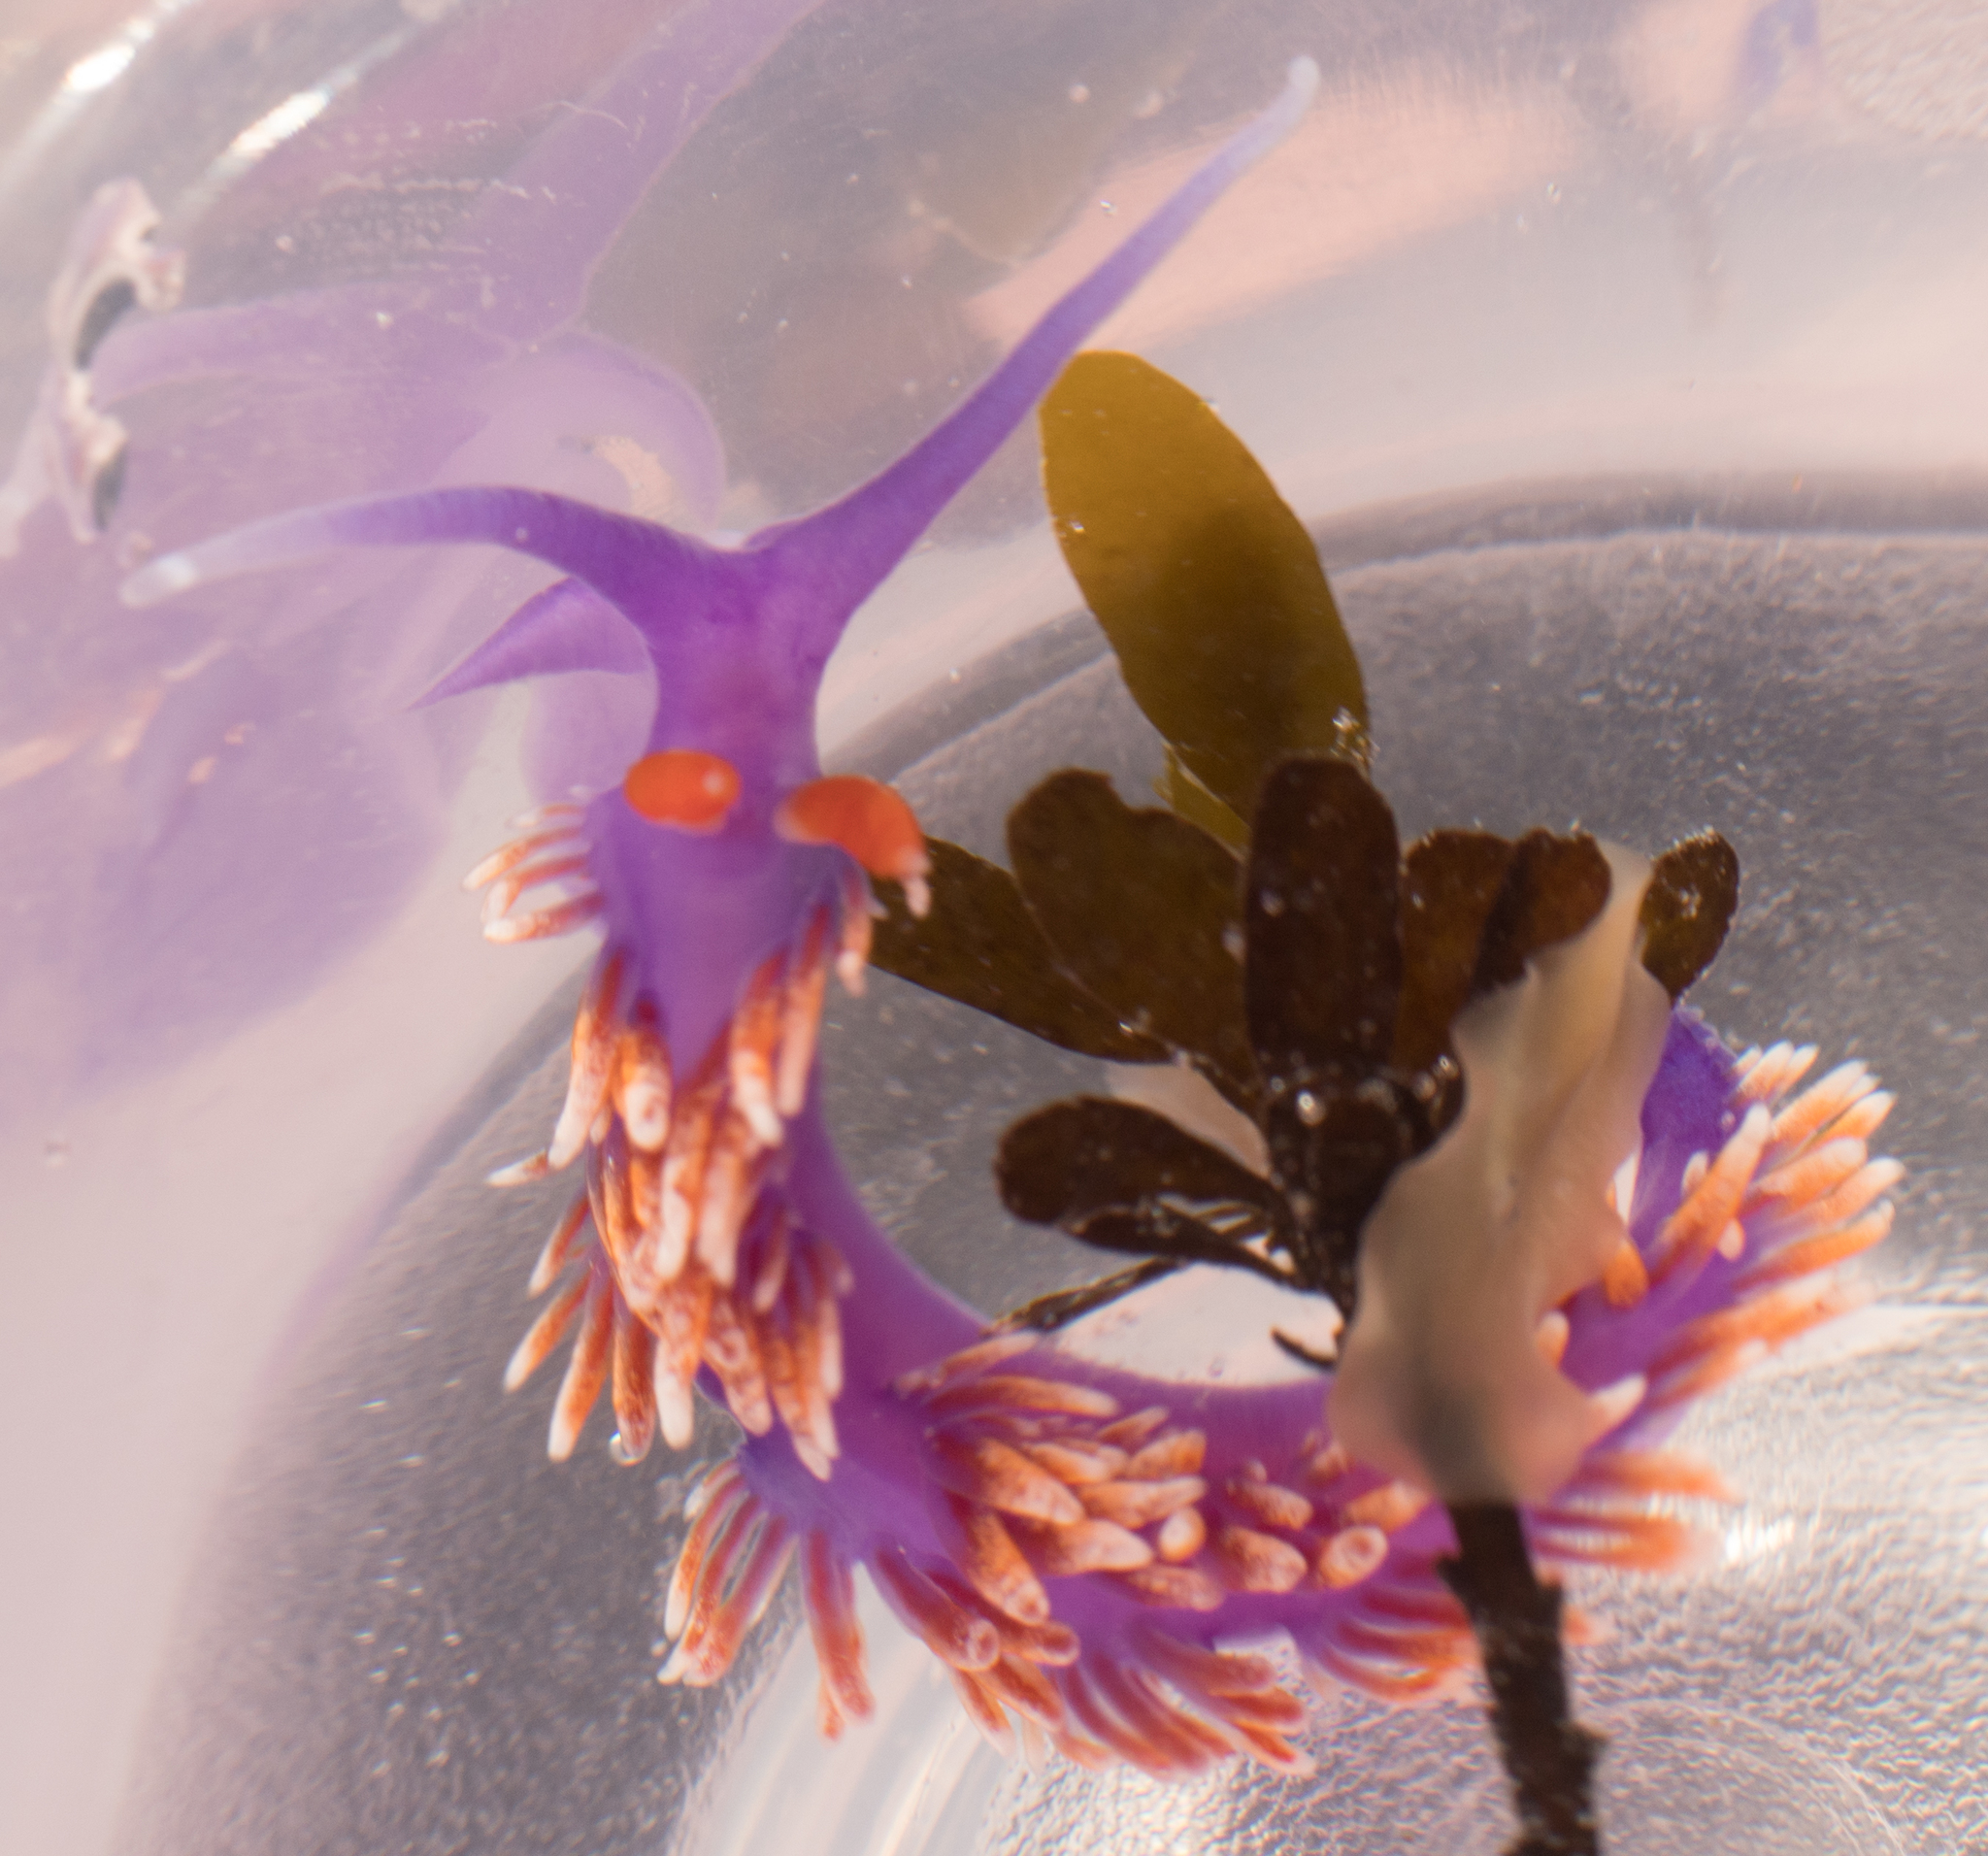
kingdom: Animalia
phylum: Mollusca
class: Gastropoda
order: Nudibranchia
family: Flabellinopsidae
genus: Flabellinopsis
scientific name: Flabellinopsis iodinea
